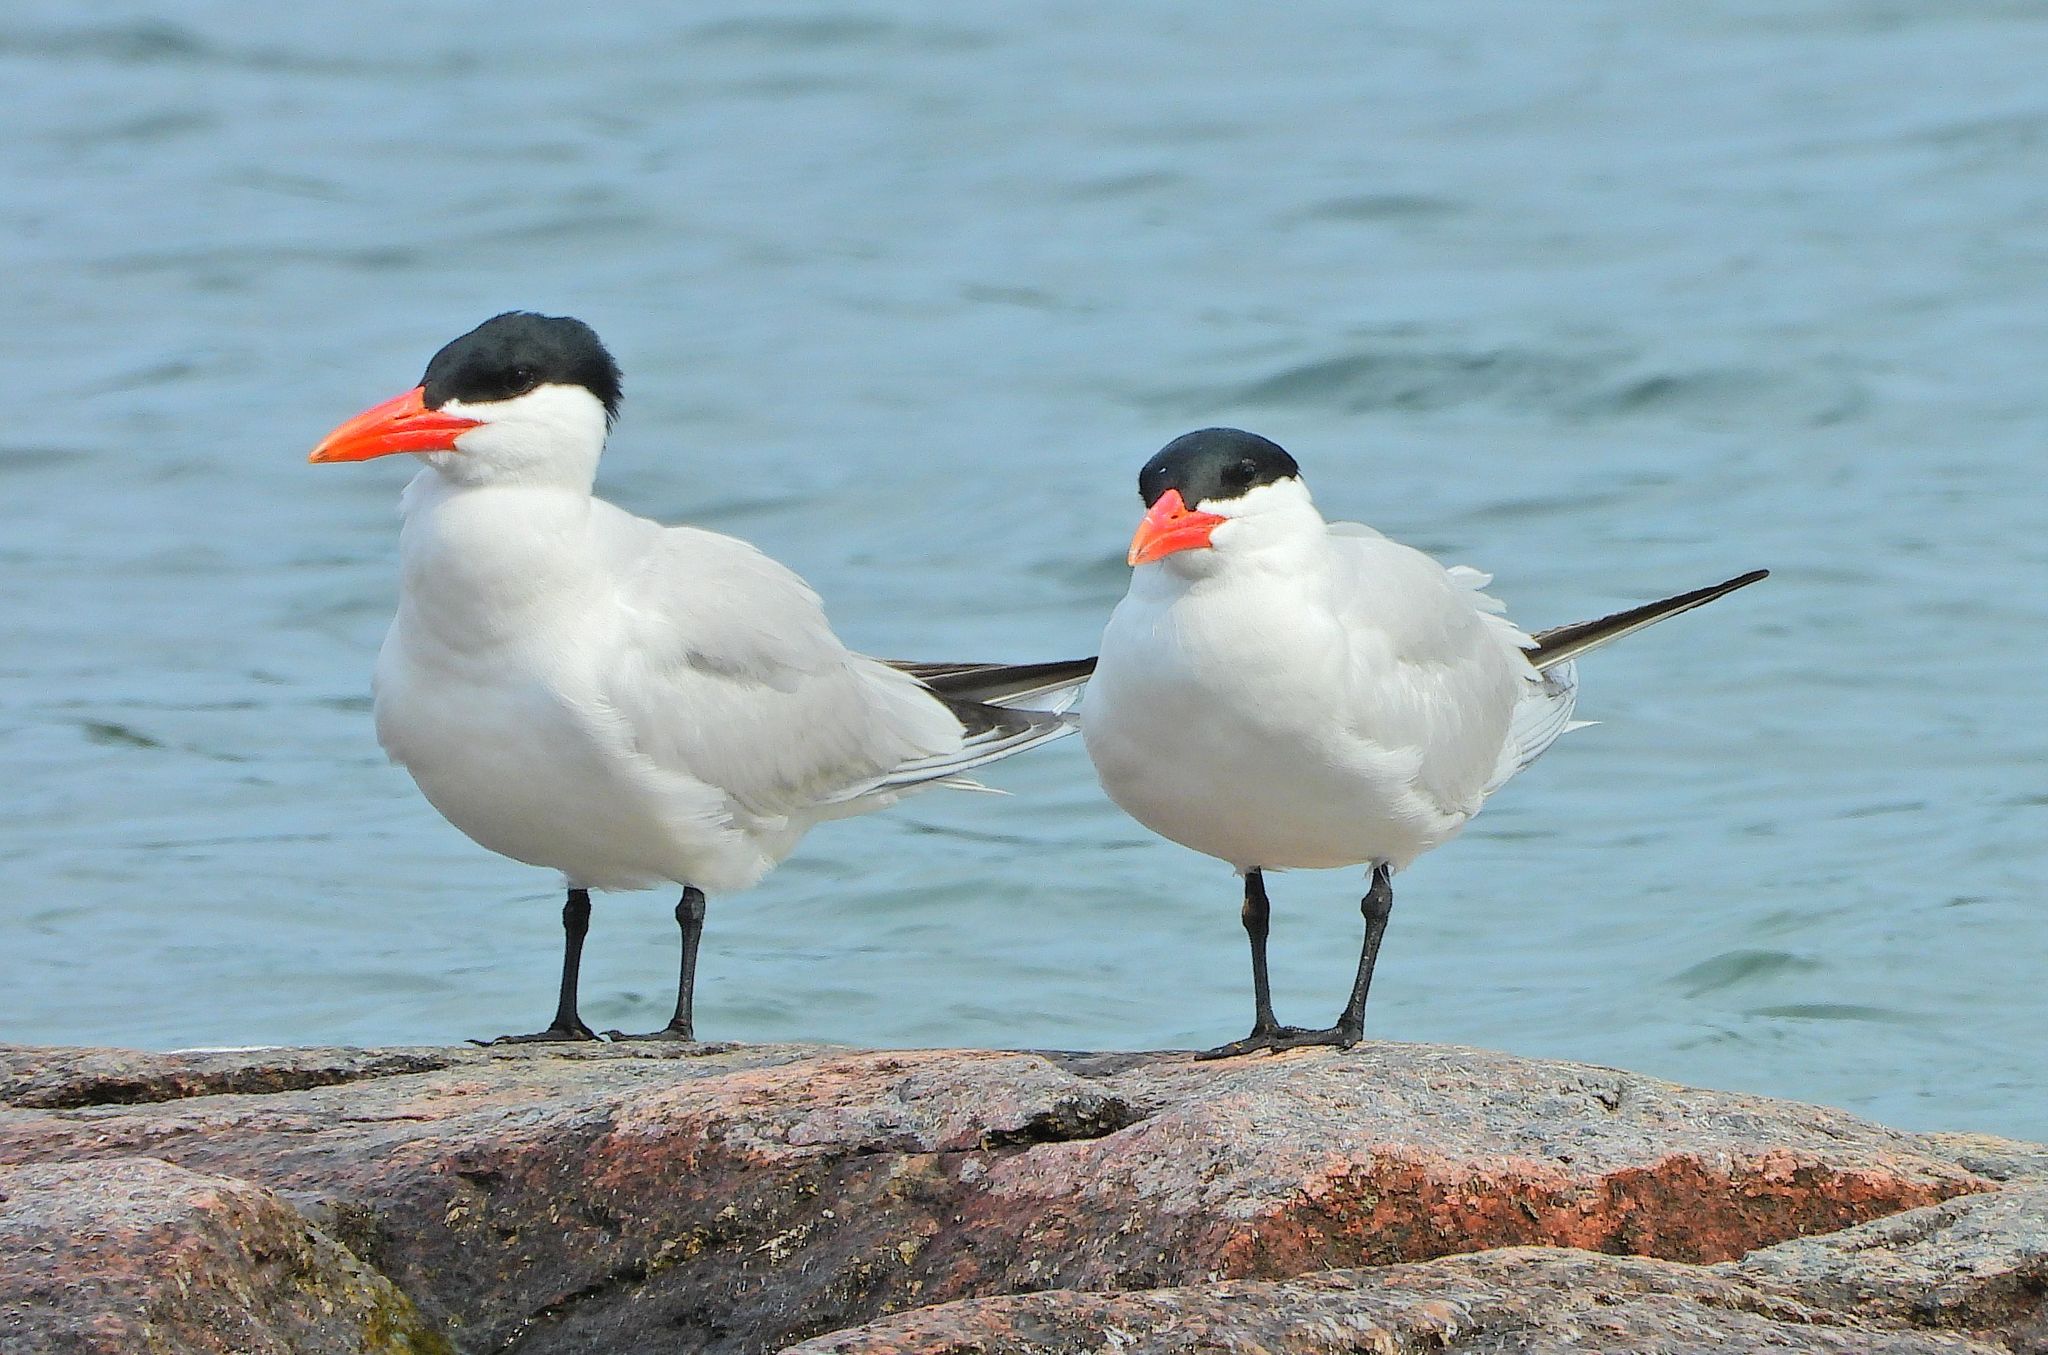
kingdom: Animalia
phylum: Chordata
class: Aves
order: Charadriiformes
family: Laridae
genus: Hydroprogne
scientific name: Hydroprogne caspia
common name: Caspian tern
